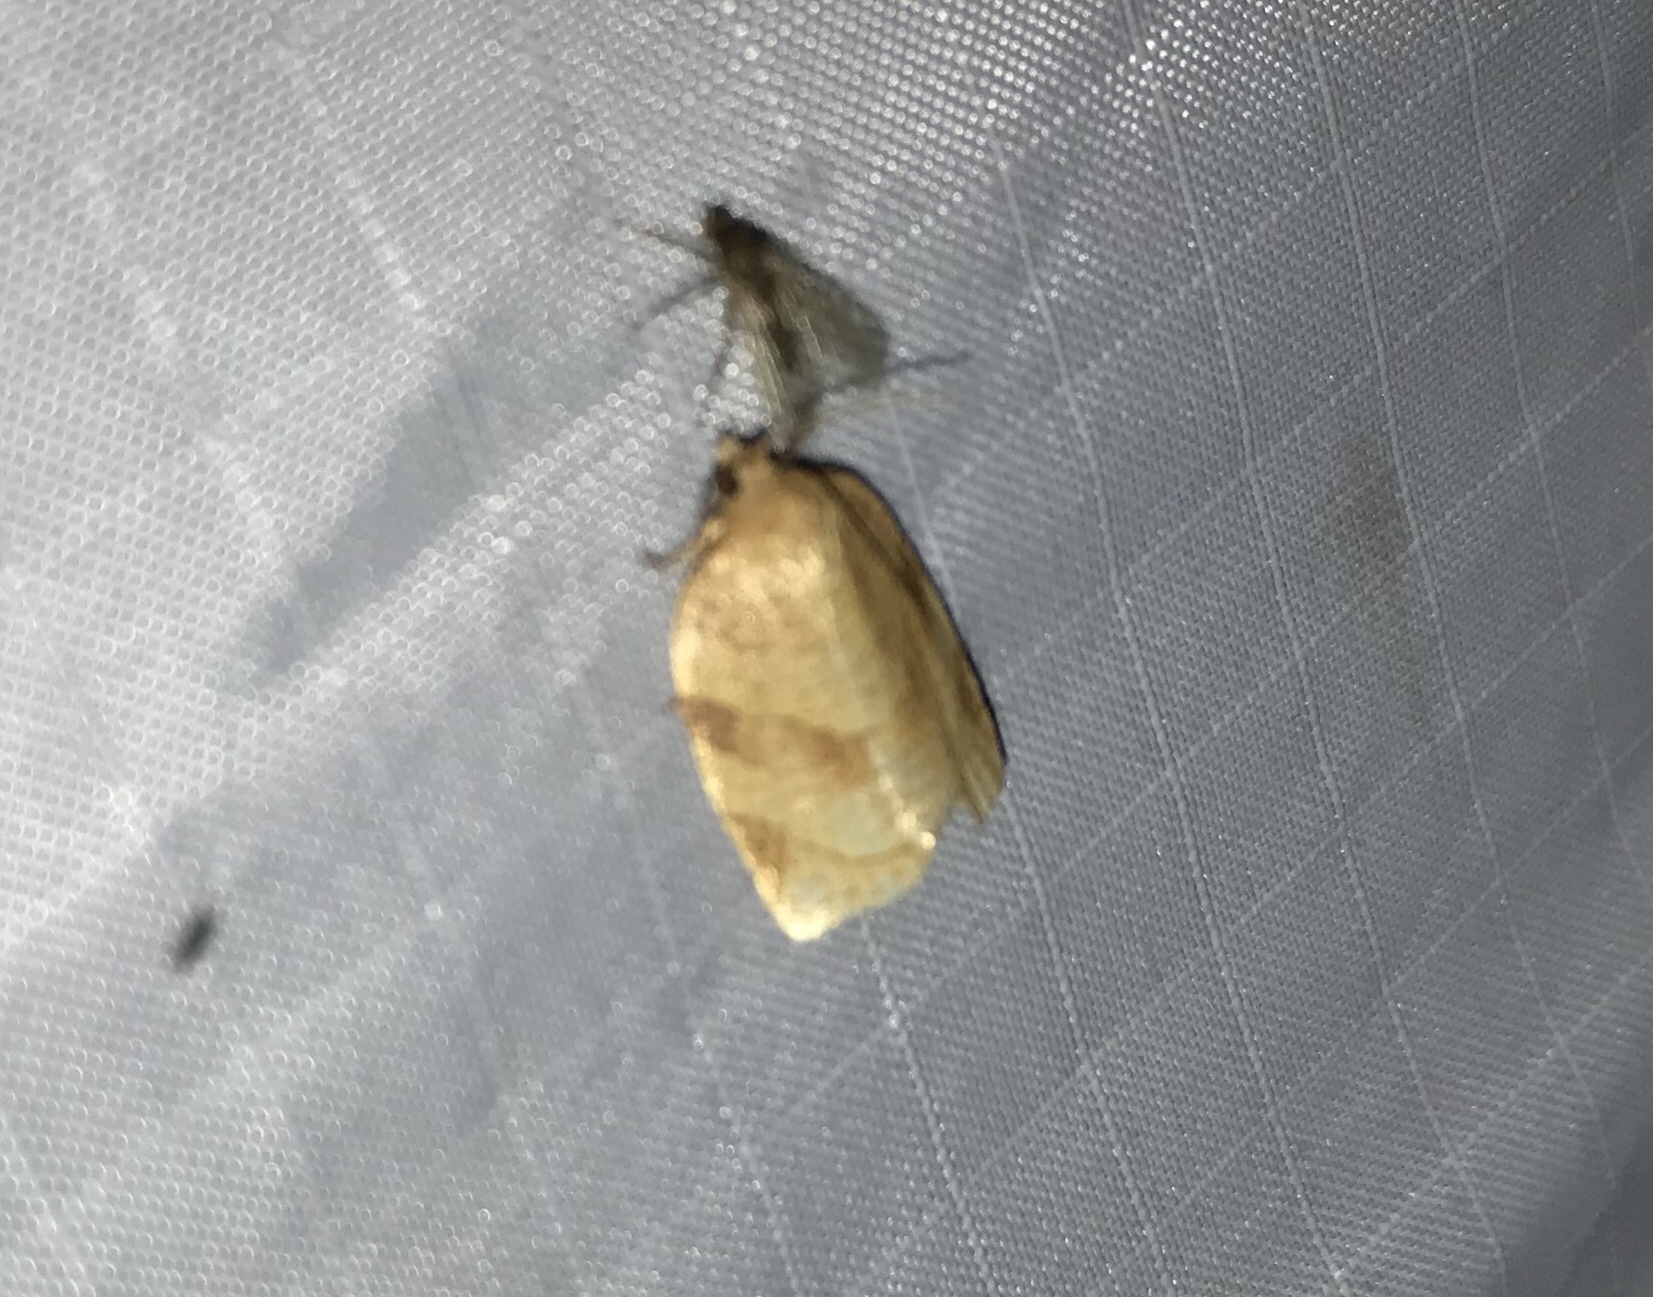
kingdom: Animalia
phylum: Arthropoda
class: Insecta
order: Lepidoptera
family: Tortricidae
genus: Choristoneura
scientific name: Choristoneura parallela
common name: Parallel-banded leafroller moth
